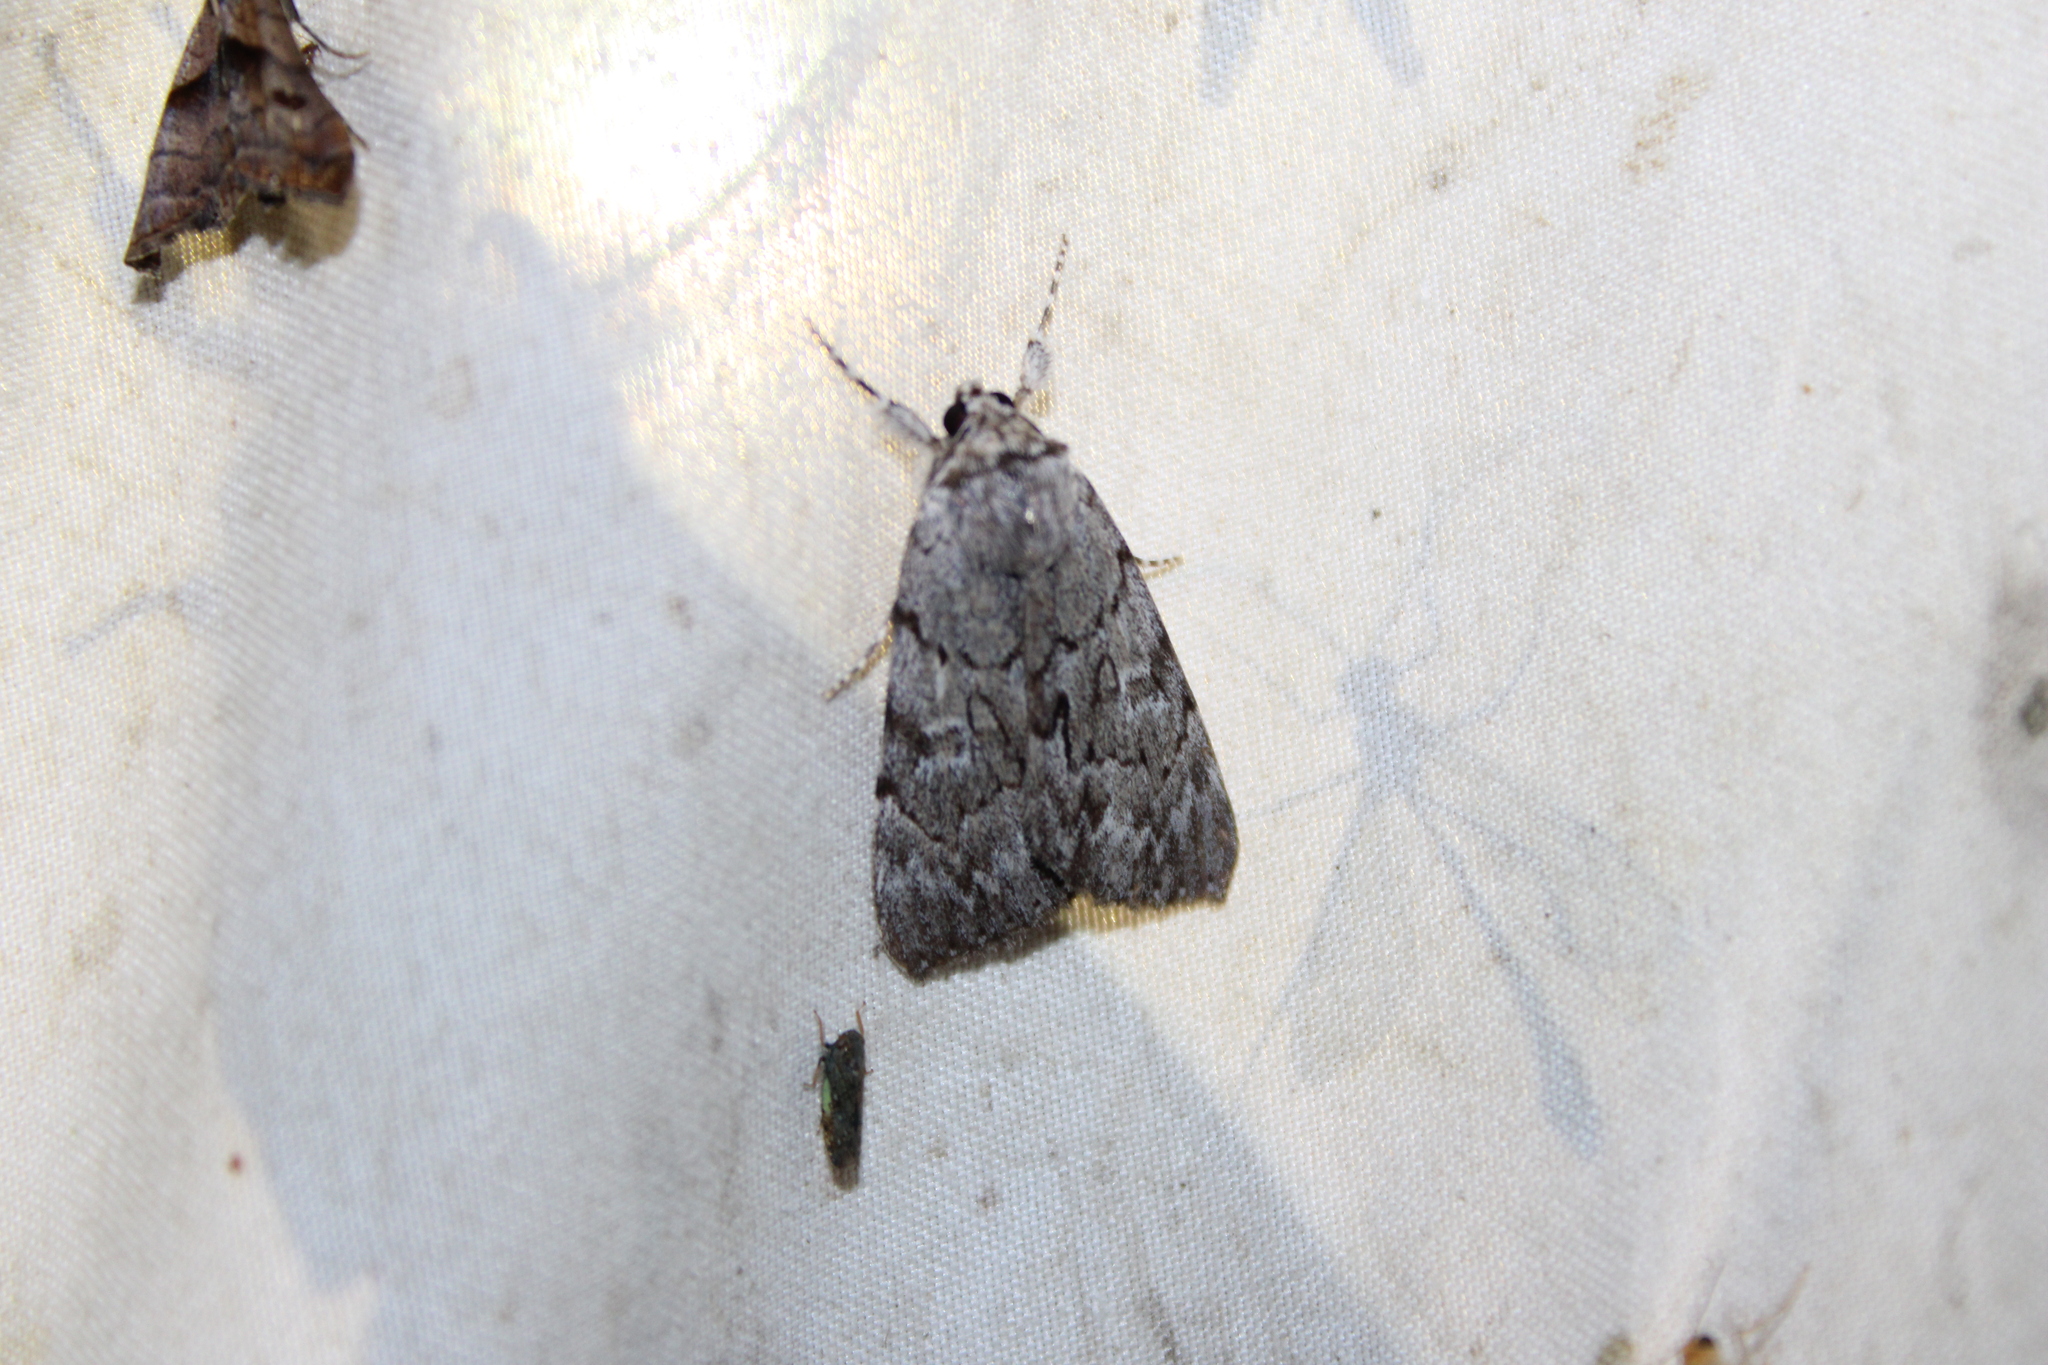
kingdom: Animalia
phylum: Arthropoda
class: Insecta
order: Lepidoptera
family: Erebidae
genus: Catocala
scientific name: Catocala sordida
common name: Sordid underwing
